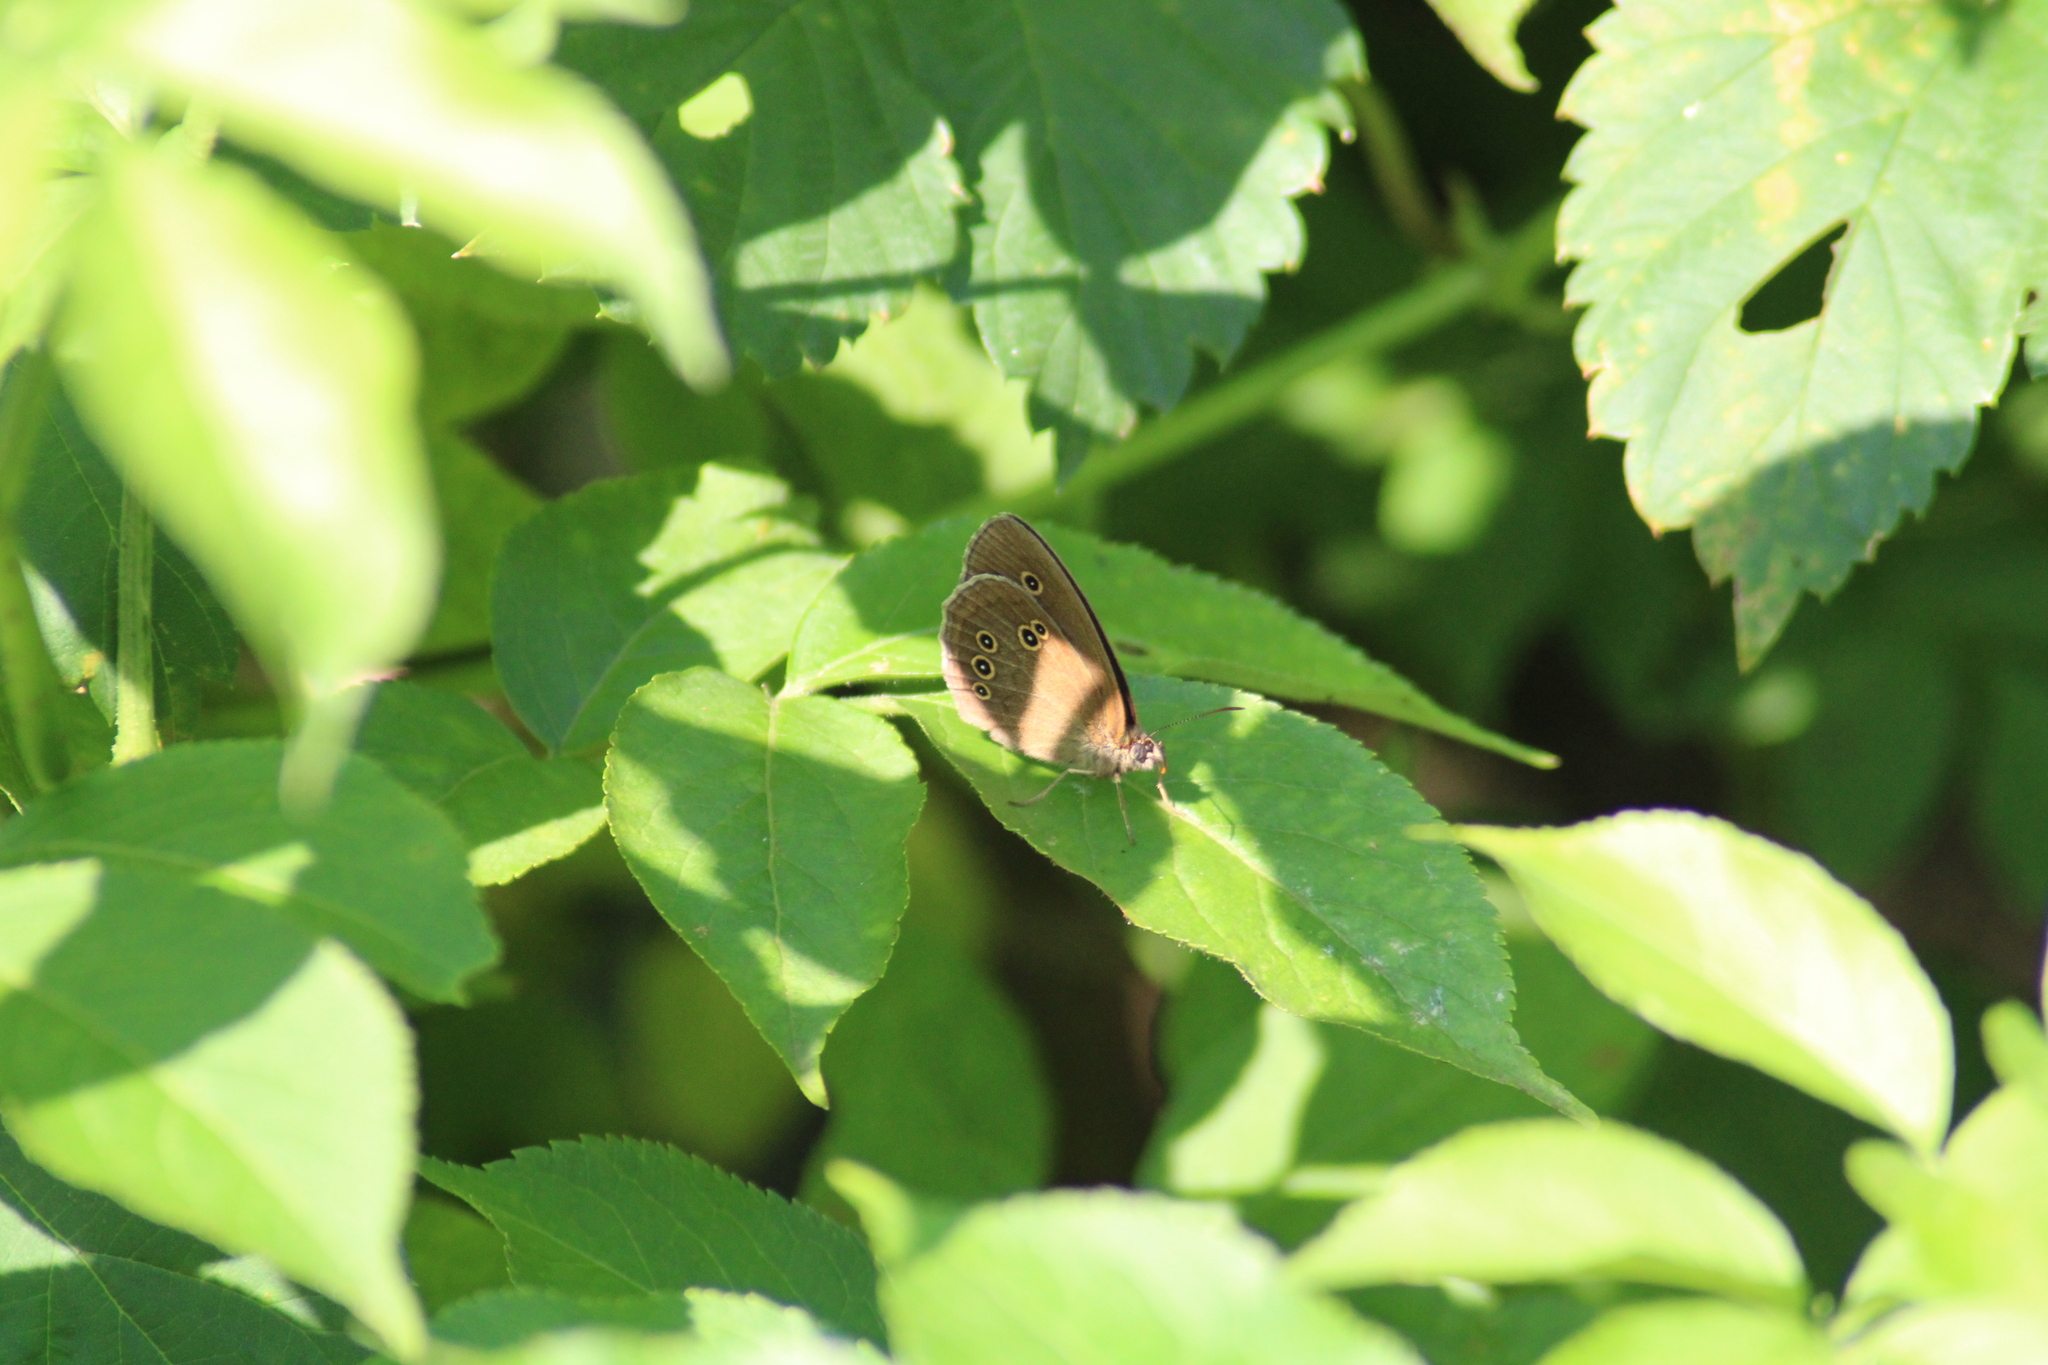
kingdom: Animalia
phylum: Arthropoda
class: Insecta
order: Lepidoptera
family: Nymphalidae
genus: Aphantopus
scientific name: Aphantopus hyperantus
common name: Ringlet
